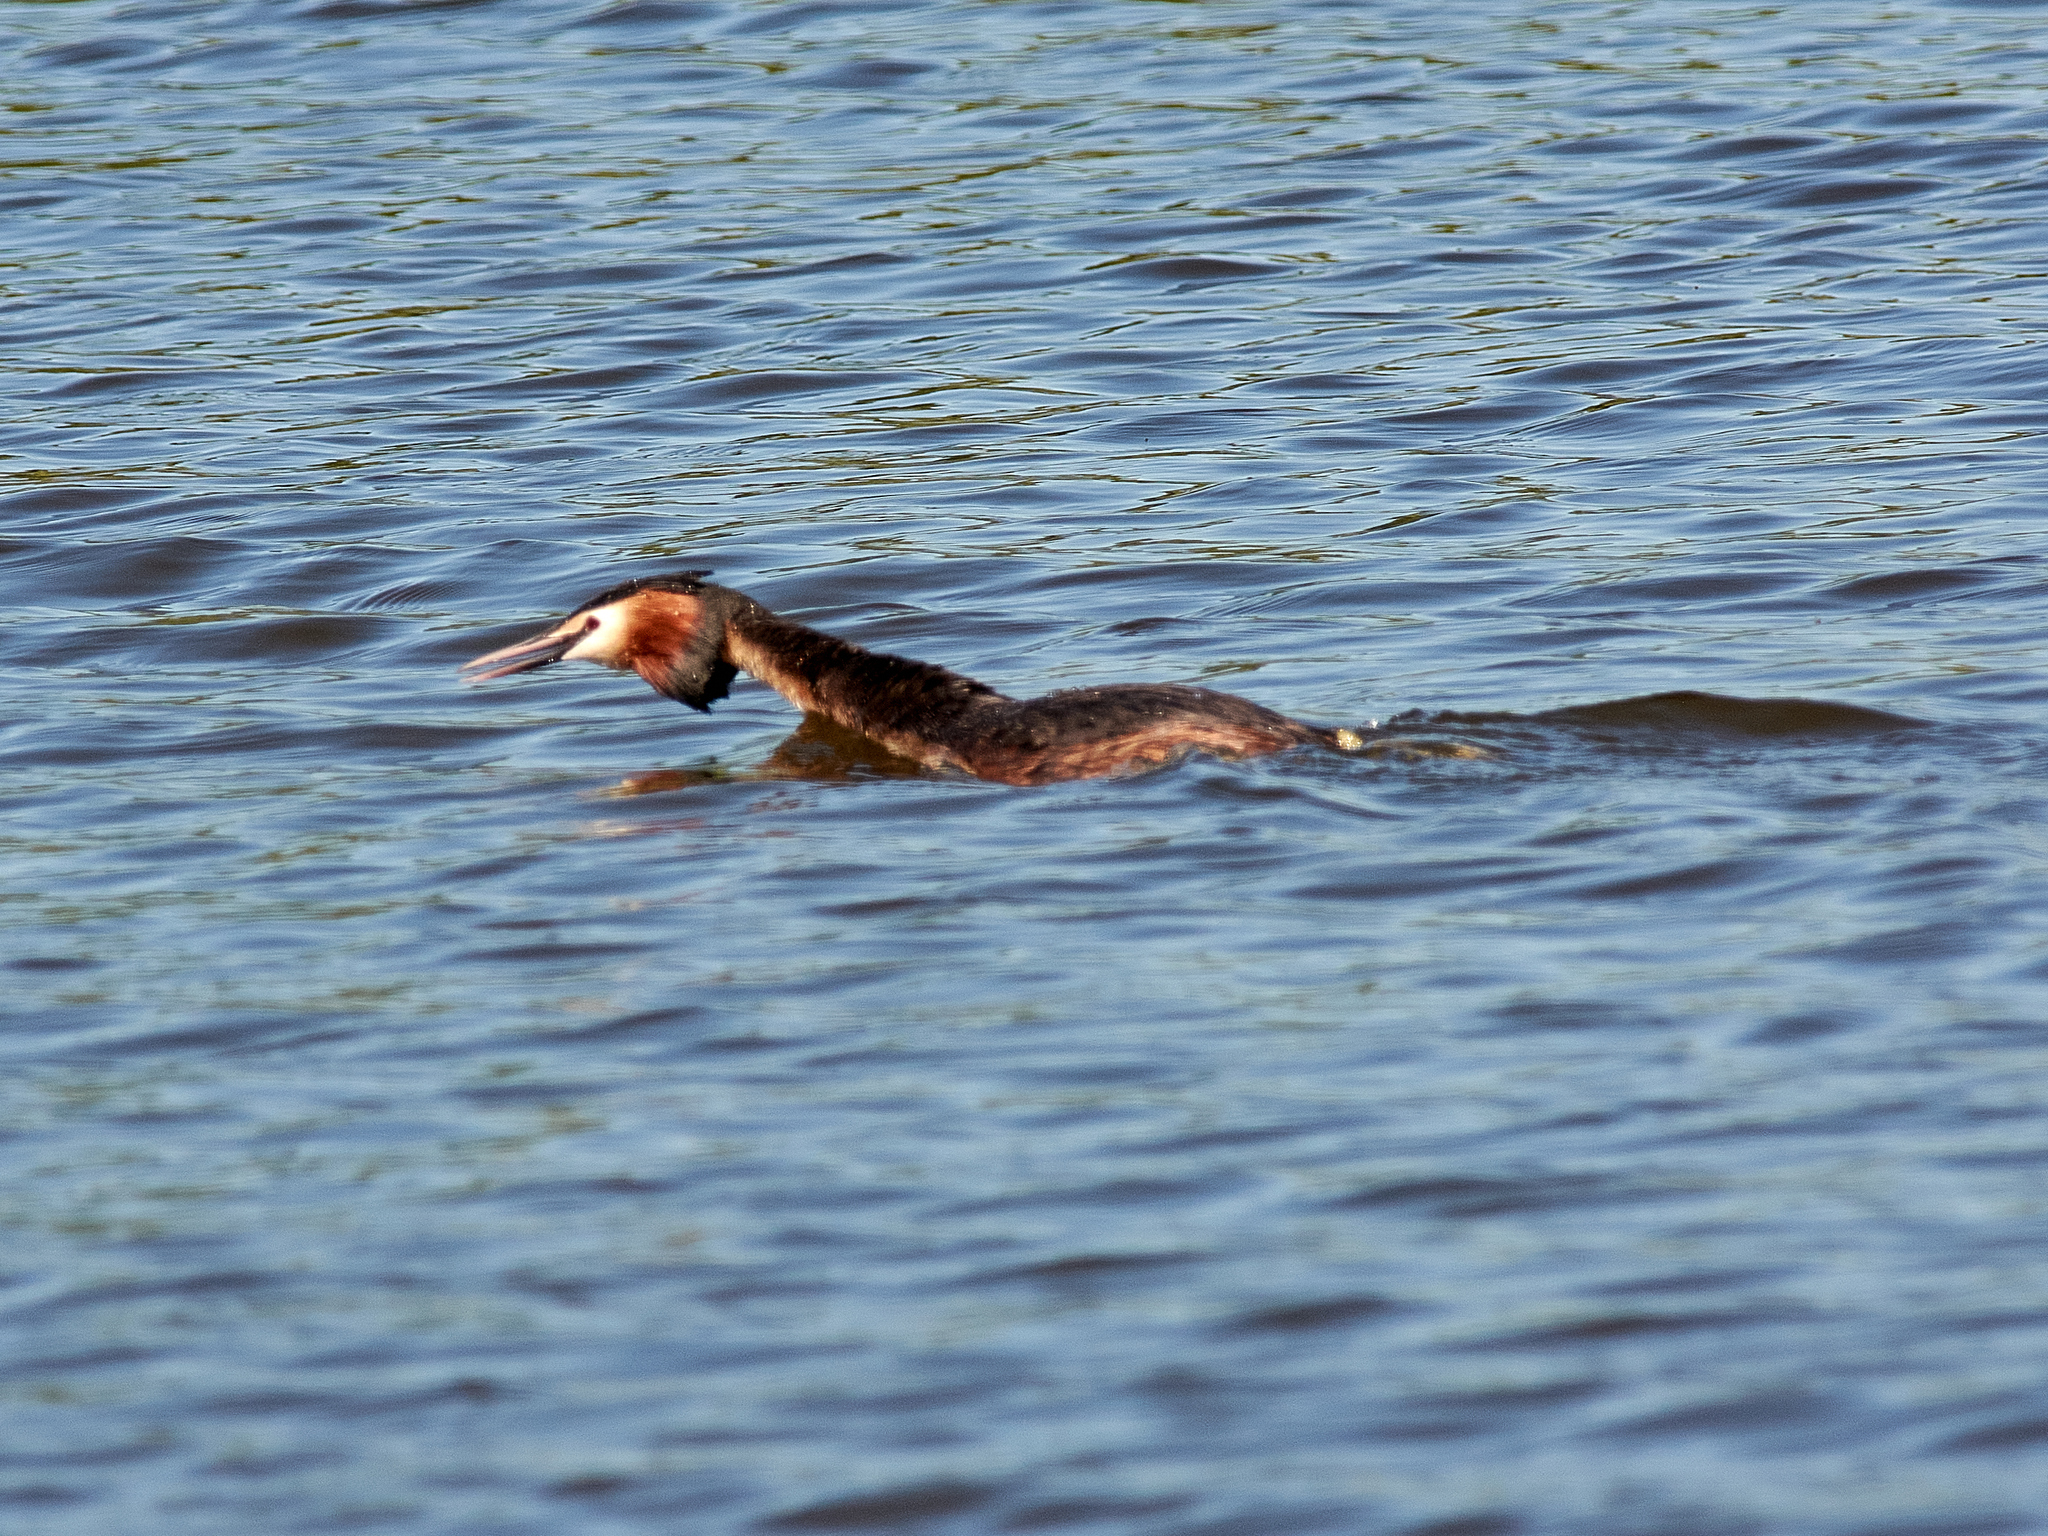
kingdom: Animalia
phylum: Chordata
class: Aves
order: Podicipediformes
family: Podicipedidae
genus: Podiceps
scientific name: Podiceps cristatus
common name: Great crested grebe
